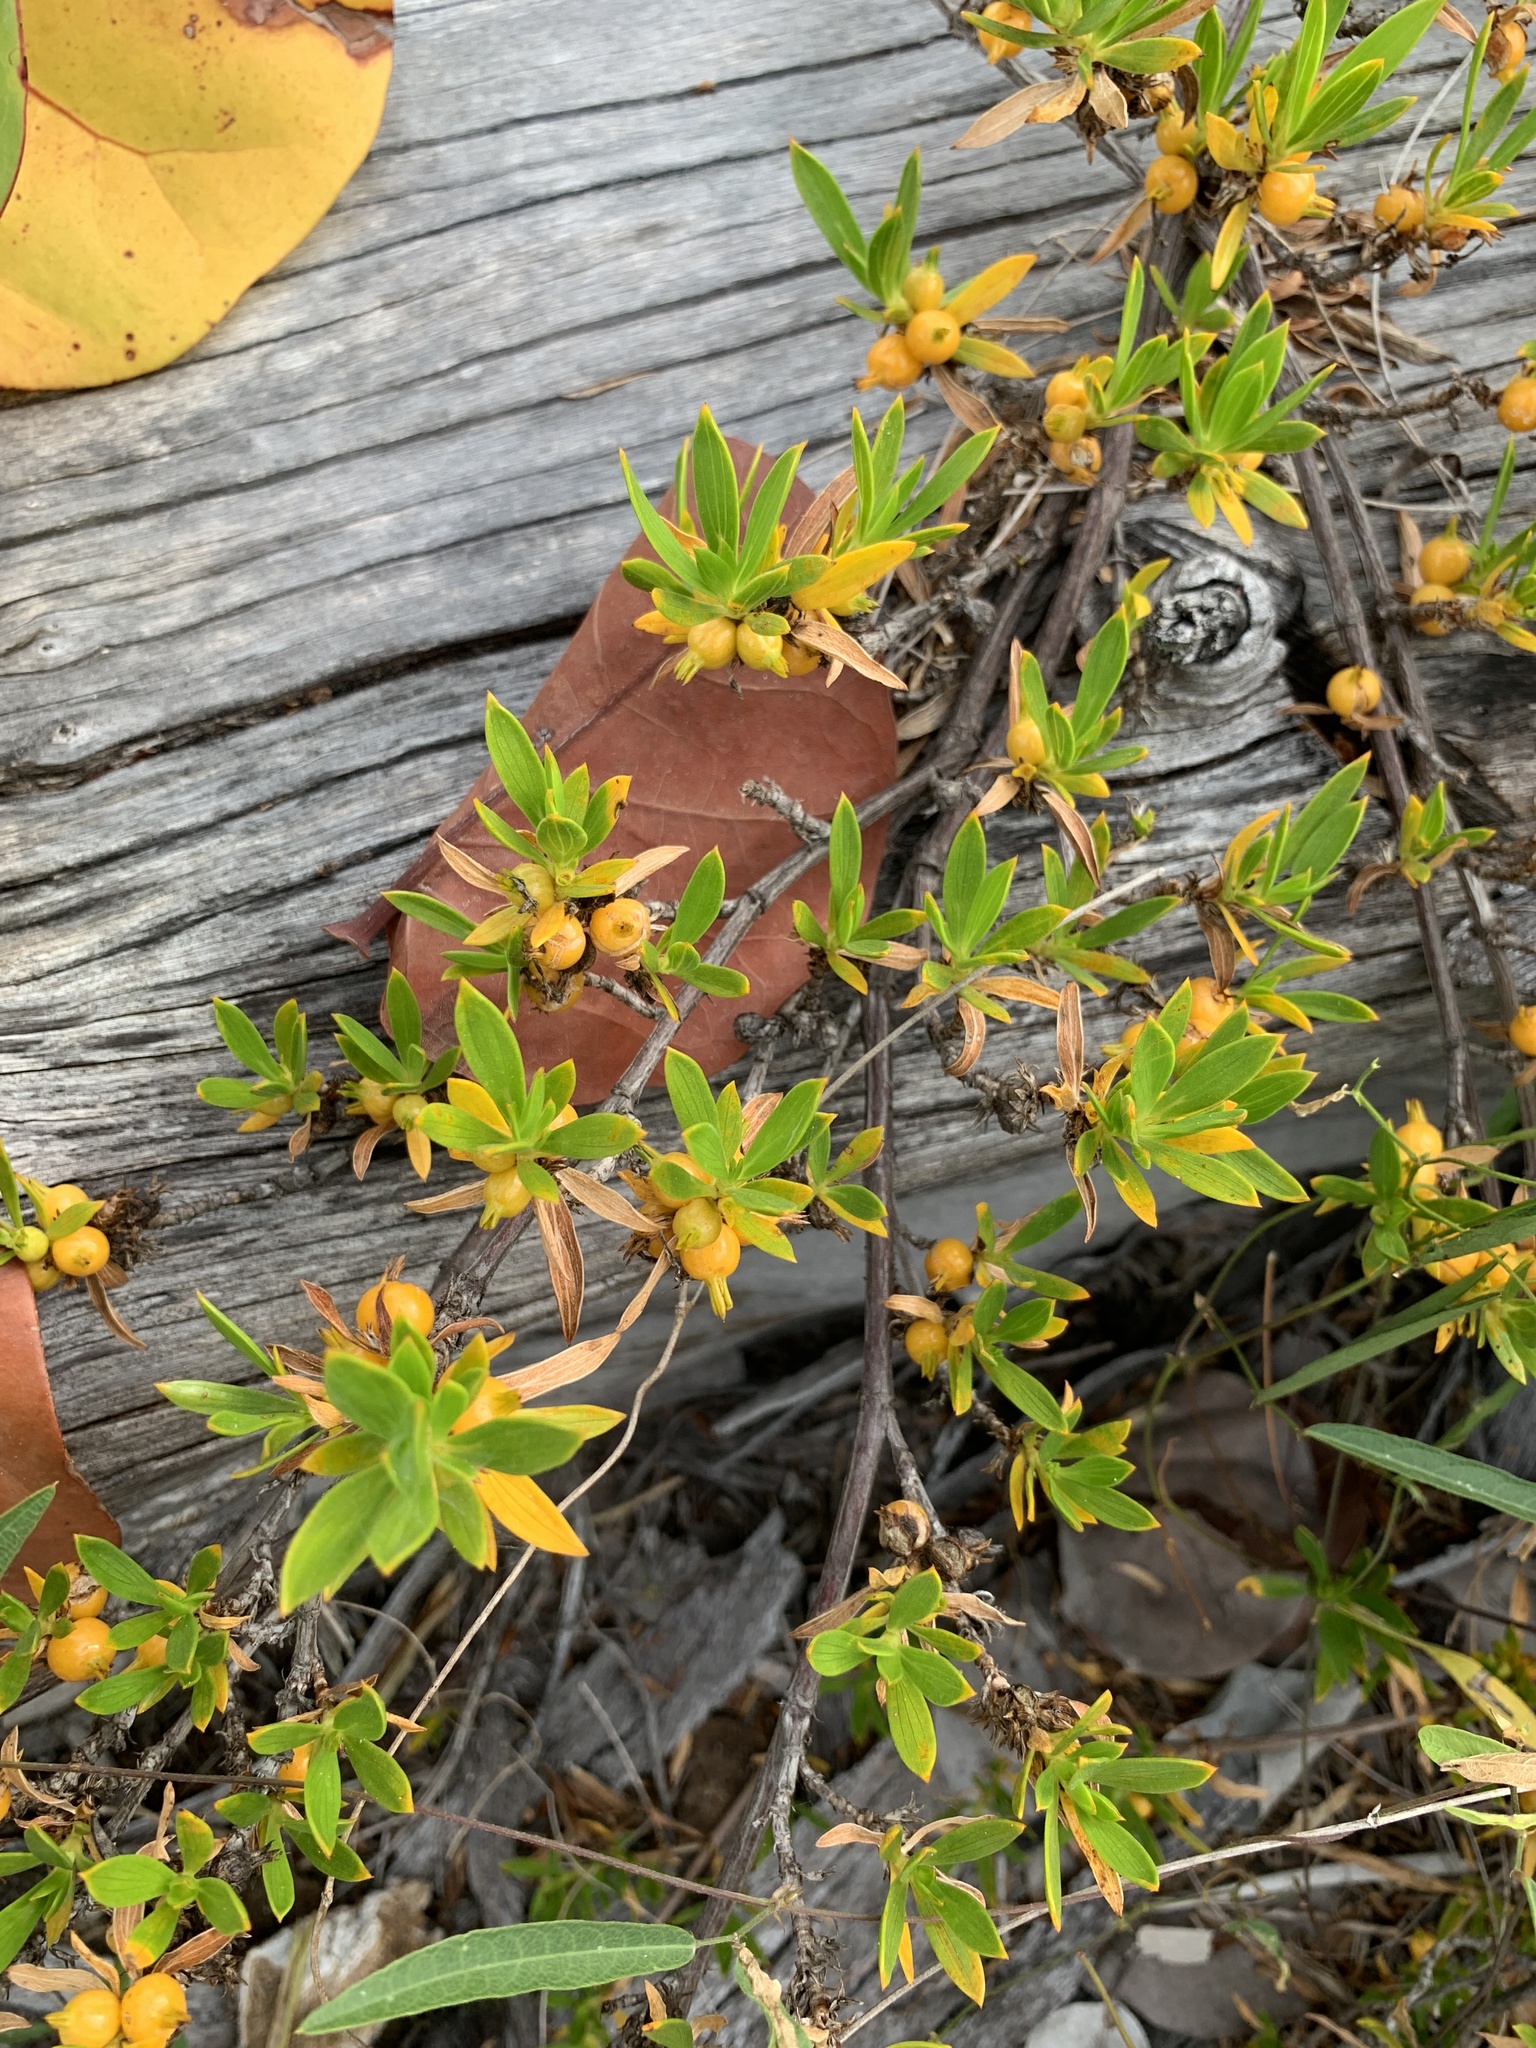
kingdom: Plantae
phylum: Tracheophyta
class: Magnoliopsida
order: Gentianales
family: Rubiaceae
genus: Ernodea
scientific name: Ernodea littoralis
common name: Beach creeper
